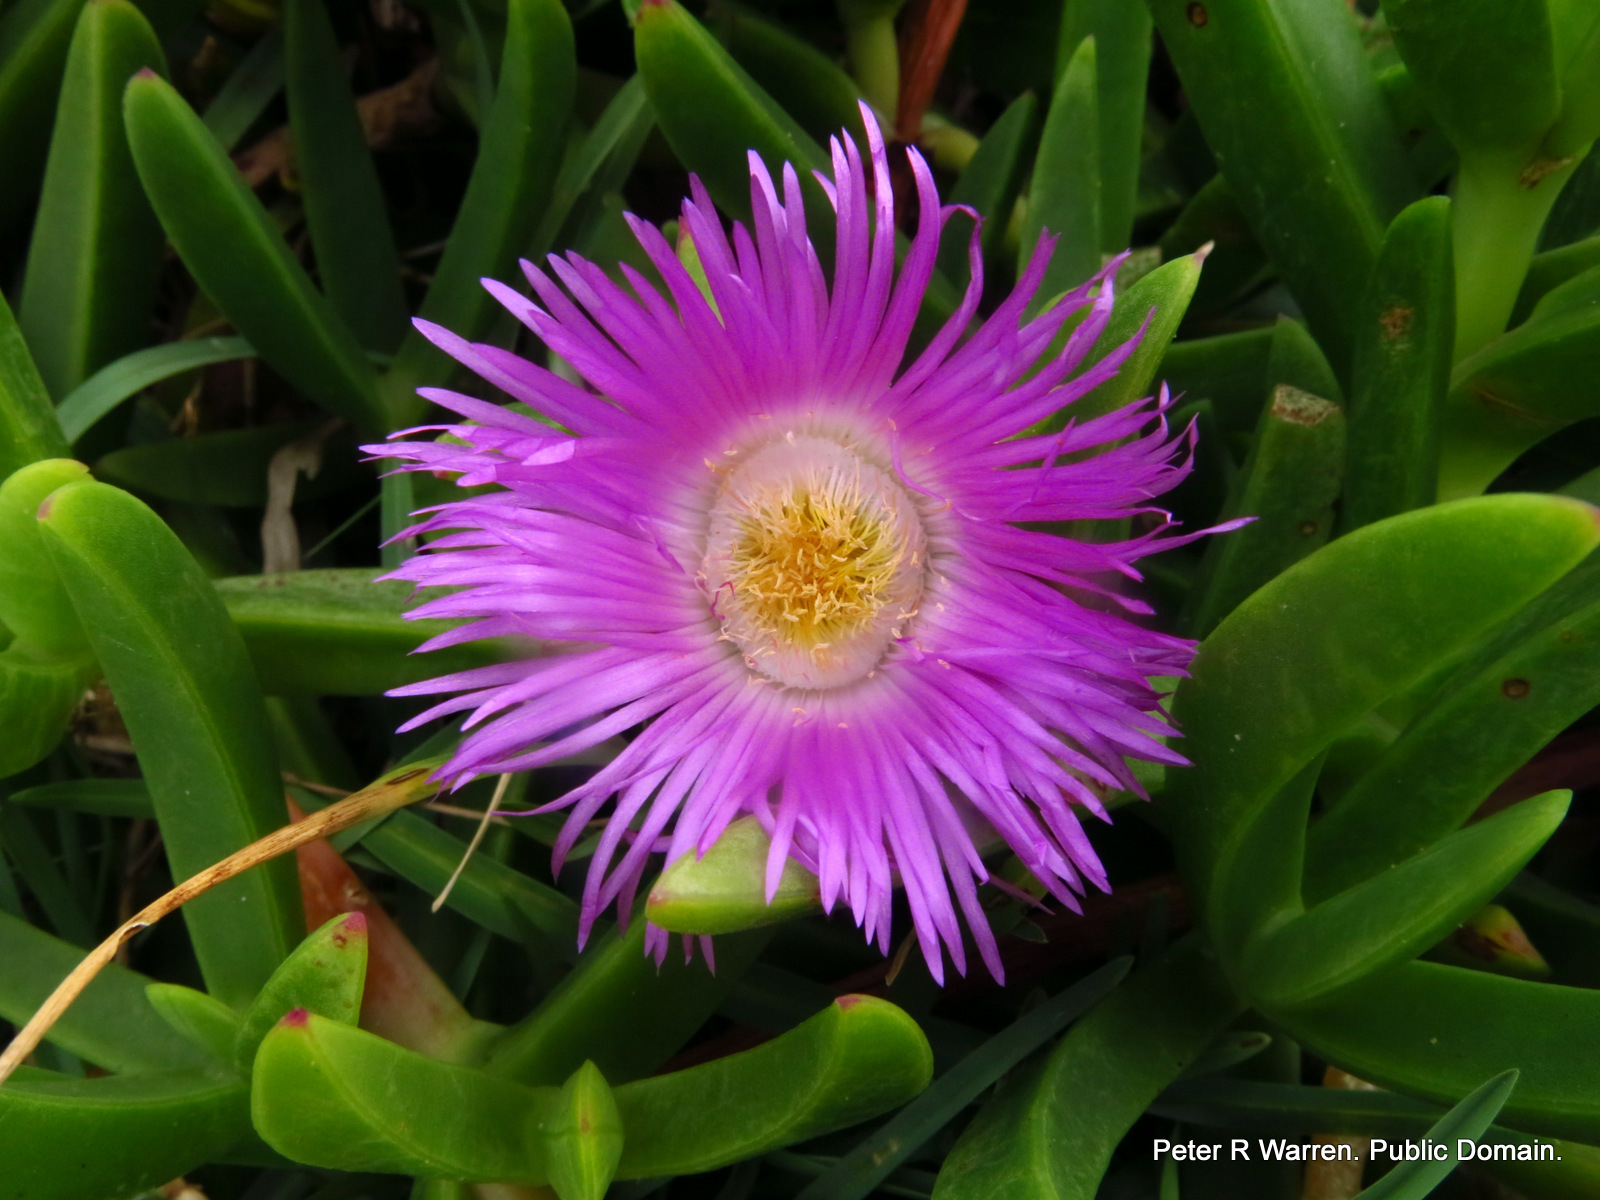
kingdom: Plantae
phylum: Tracheophyta
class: Magnoliopsida
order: Caryophyllales
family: Aizoaceae
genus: Carpobrotus
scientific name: Carpobrotus dimidiatus
